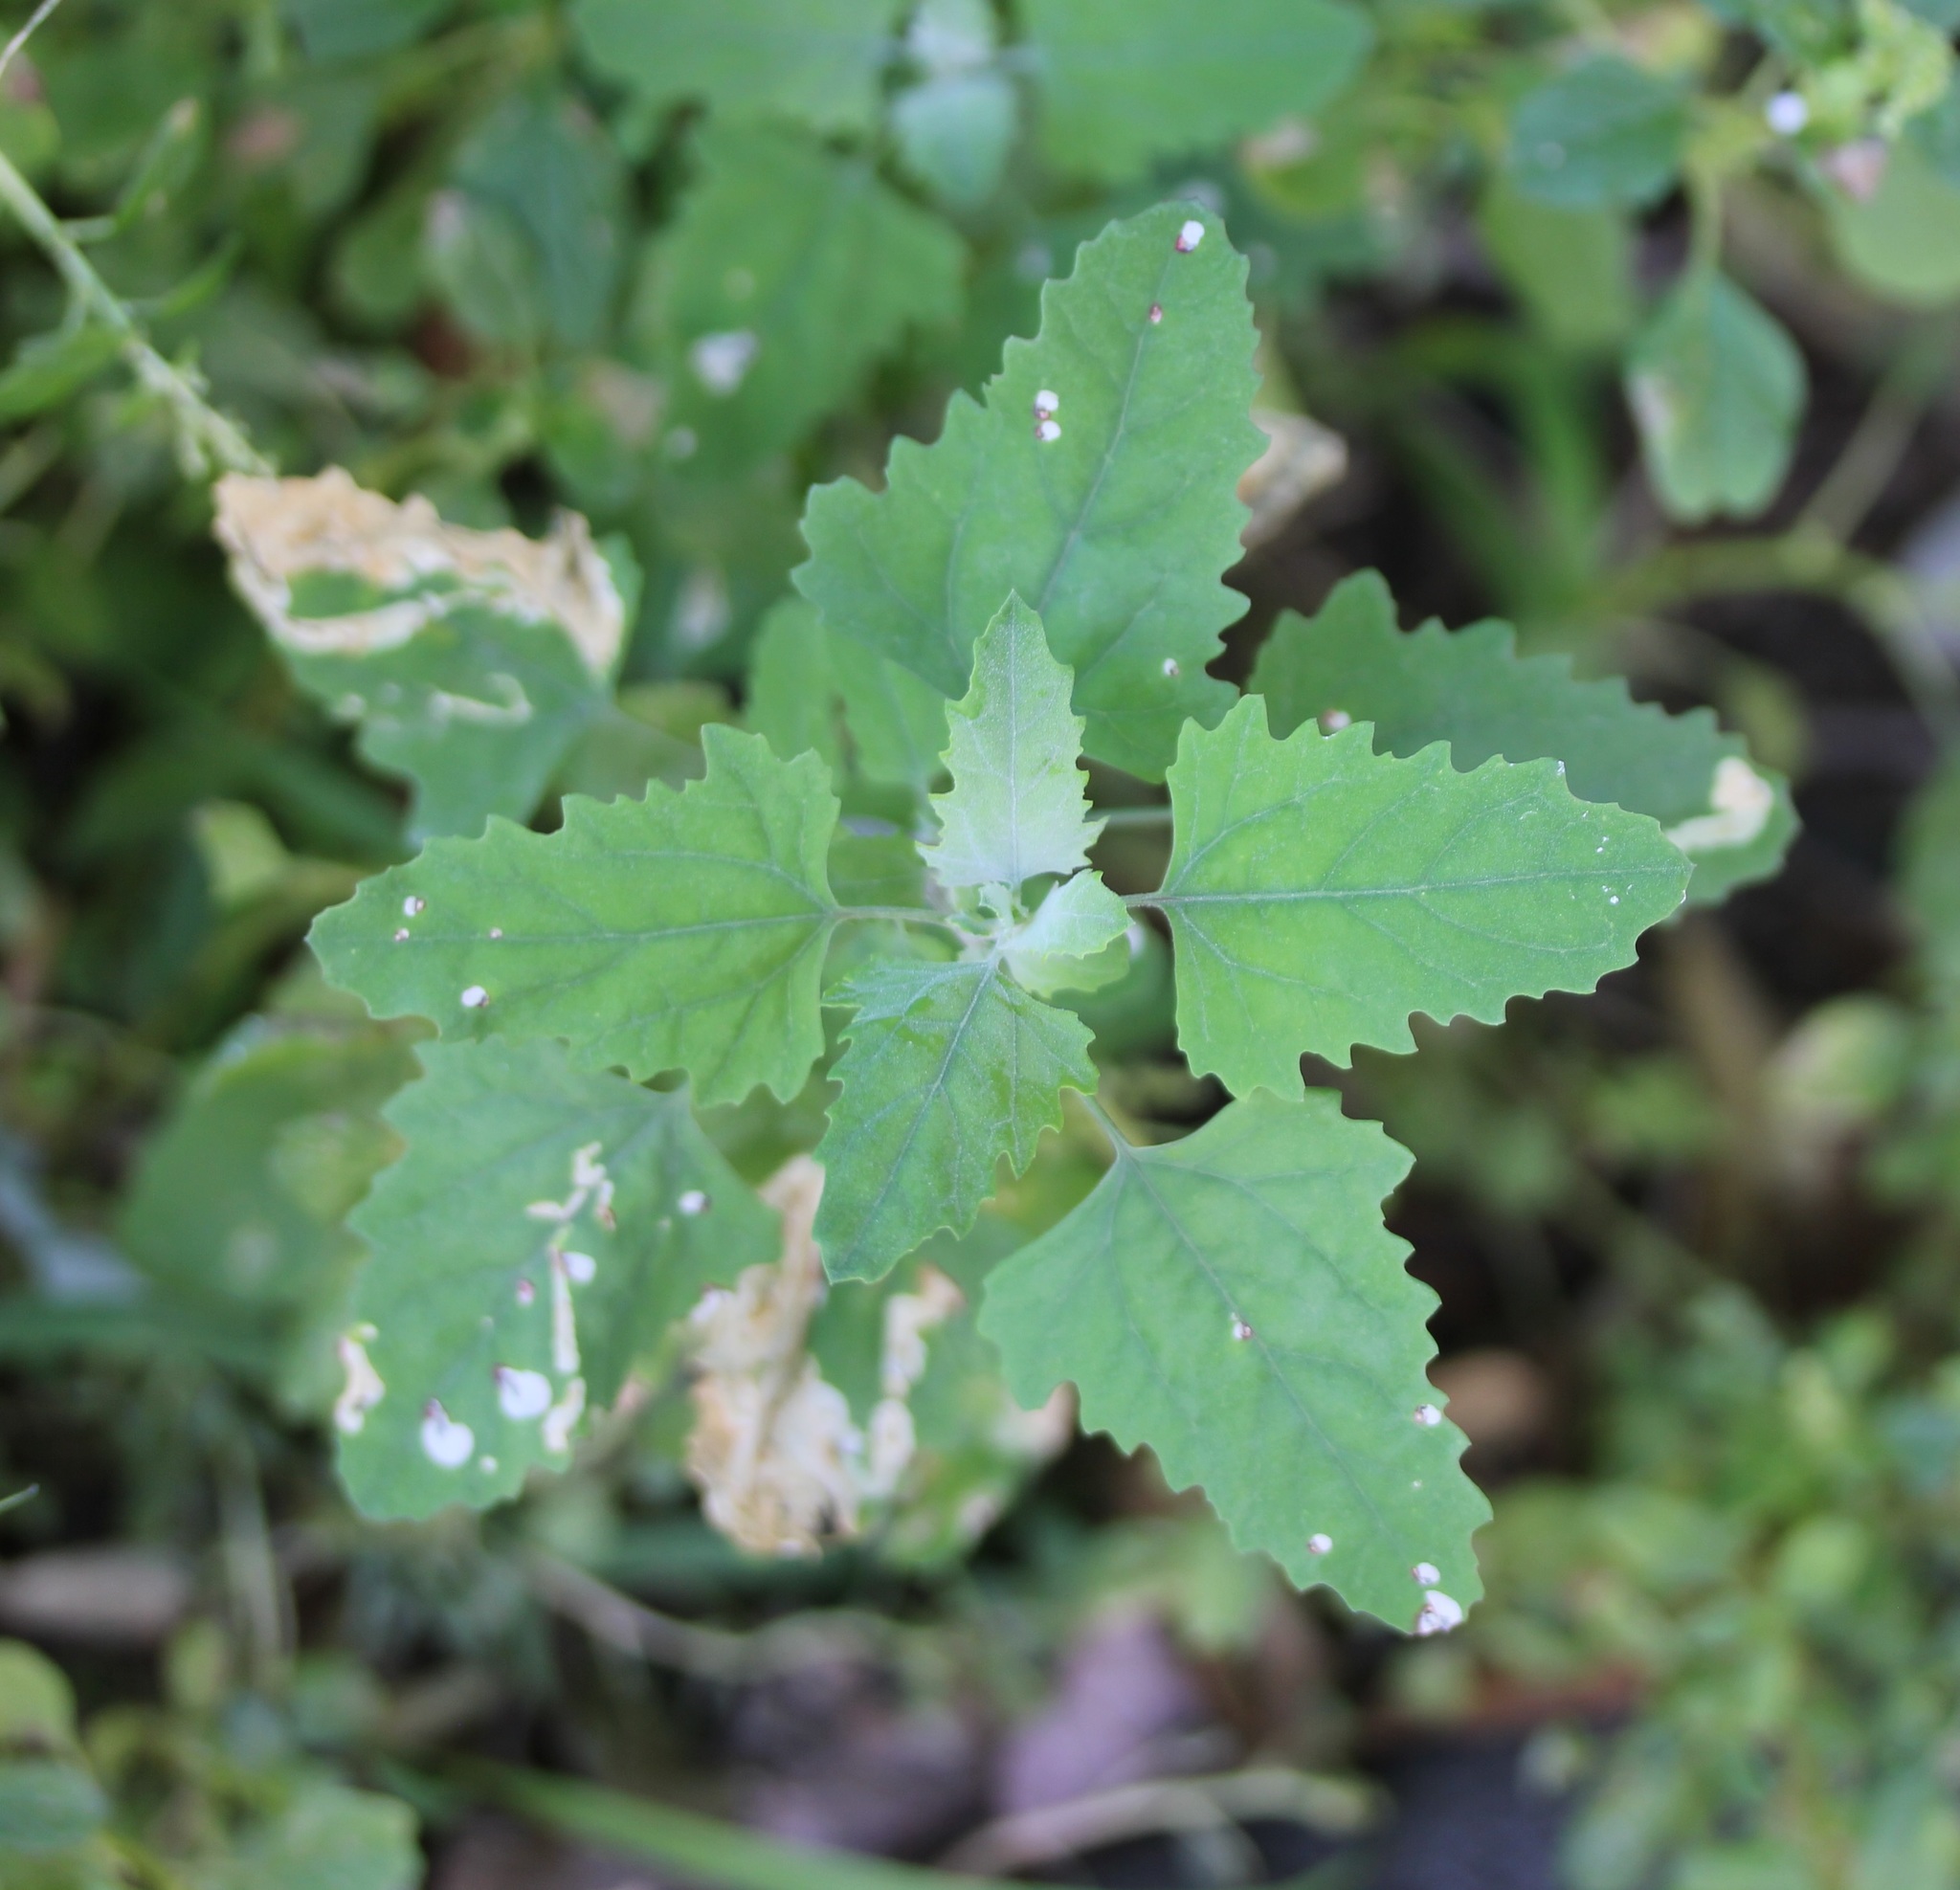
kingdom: Plantae
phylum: Tracheophyta
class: Magnoliopsida
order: Caryophyllales
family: Amaranthaceae
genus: Chenopodium
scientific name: Chenopodium album
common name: Fat-hen
